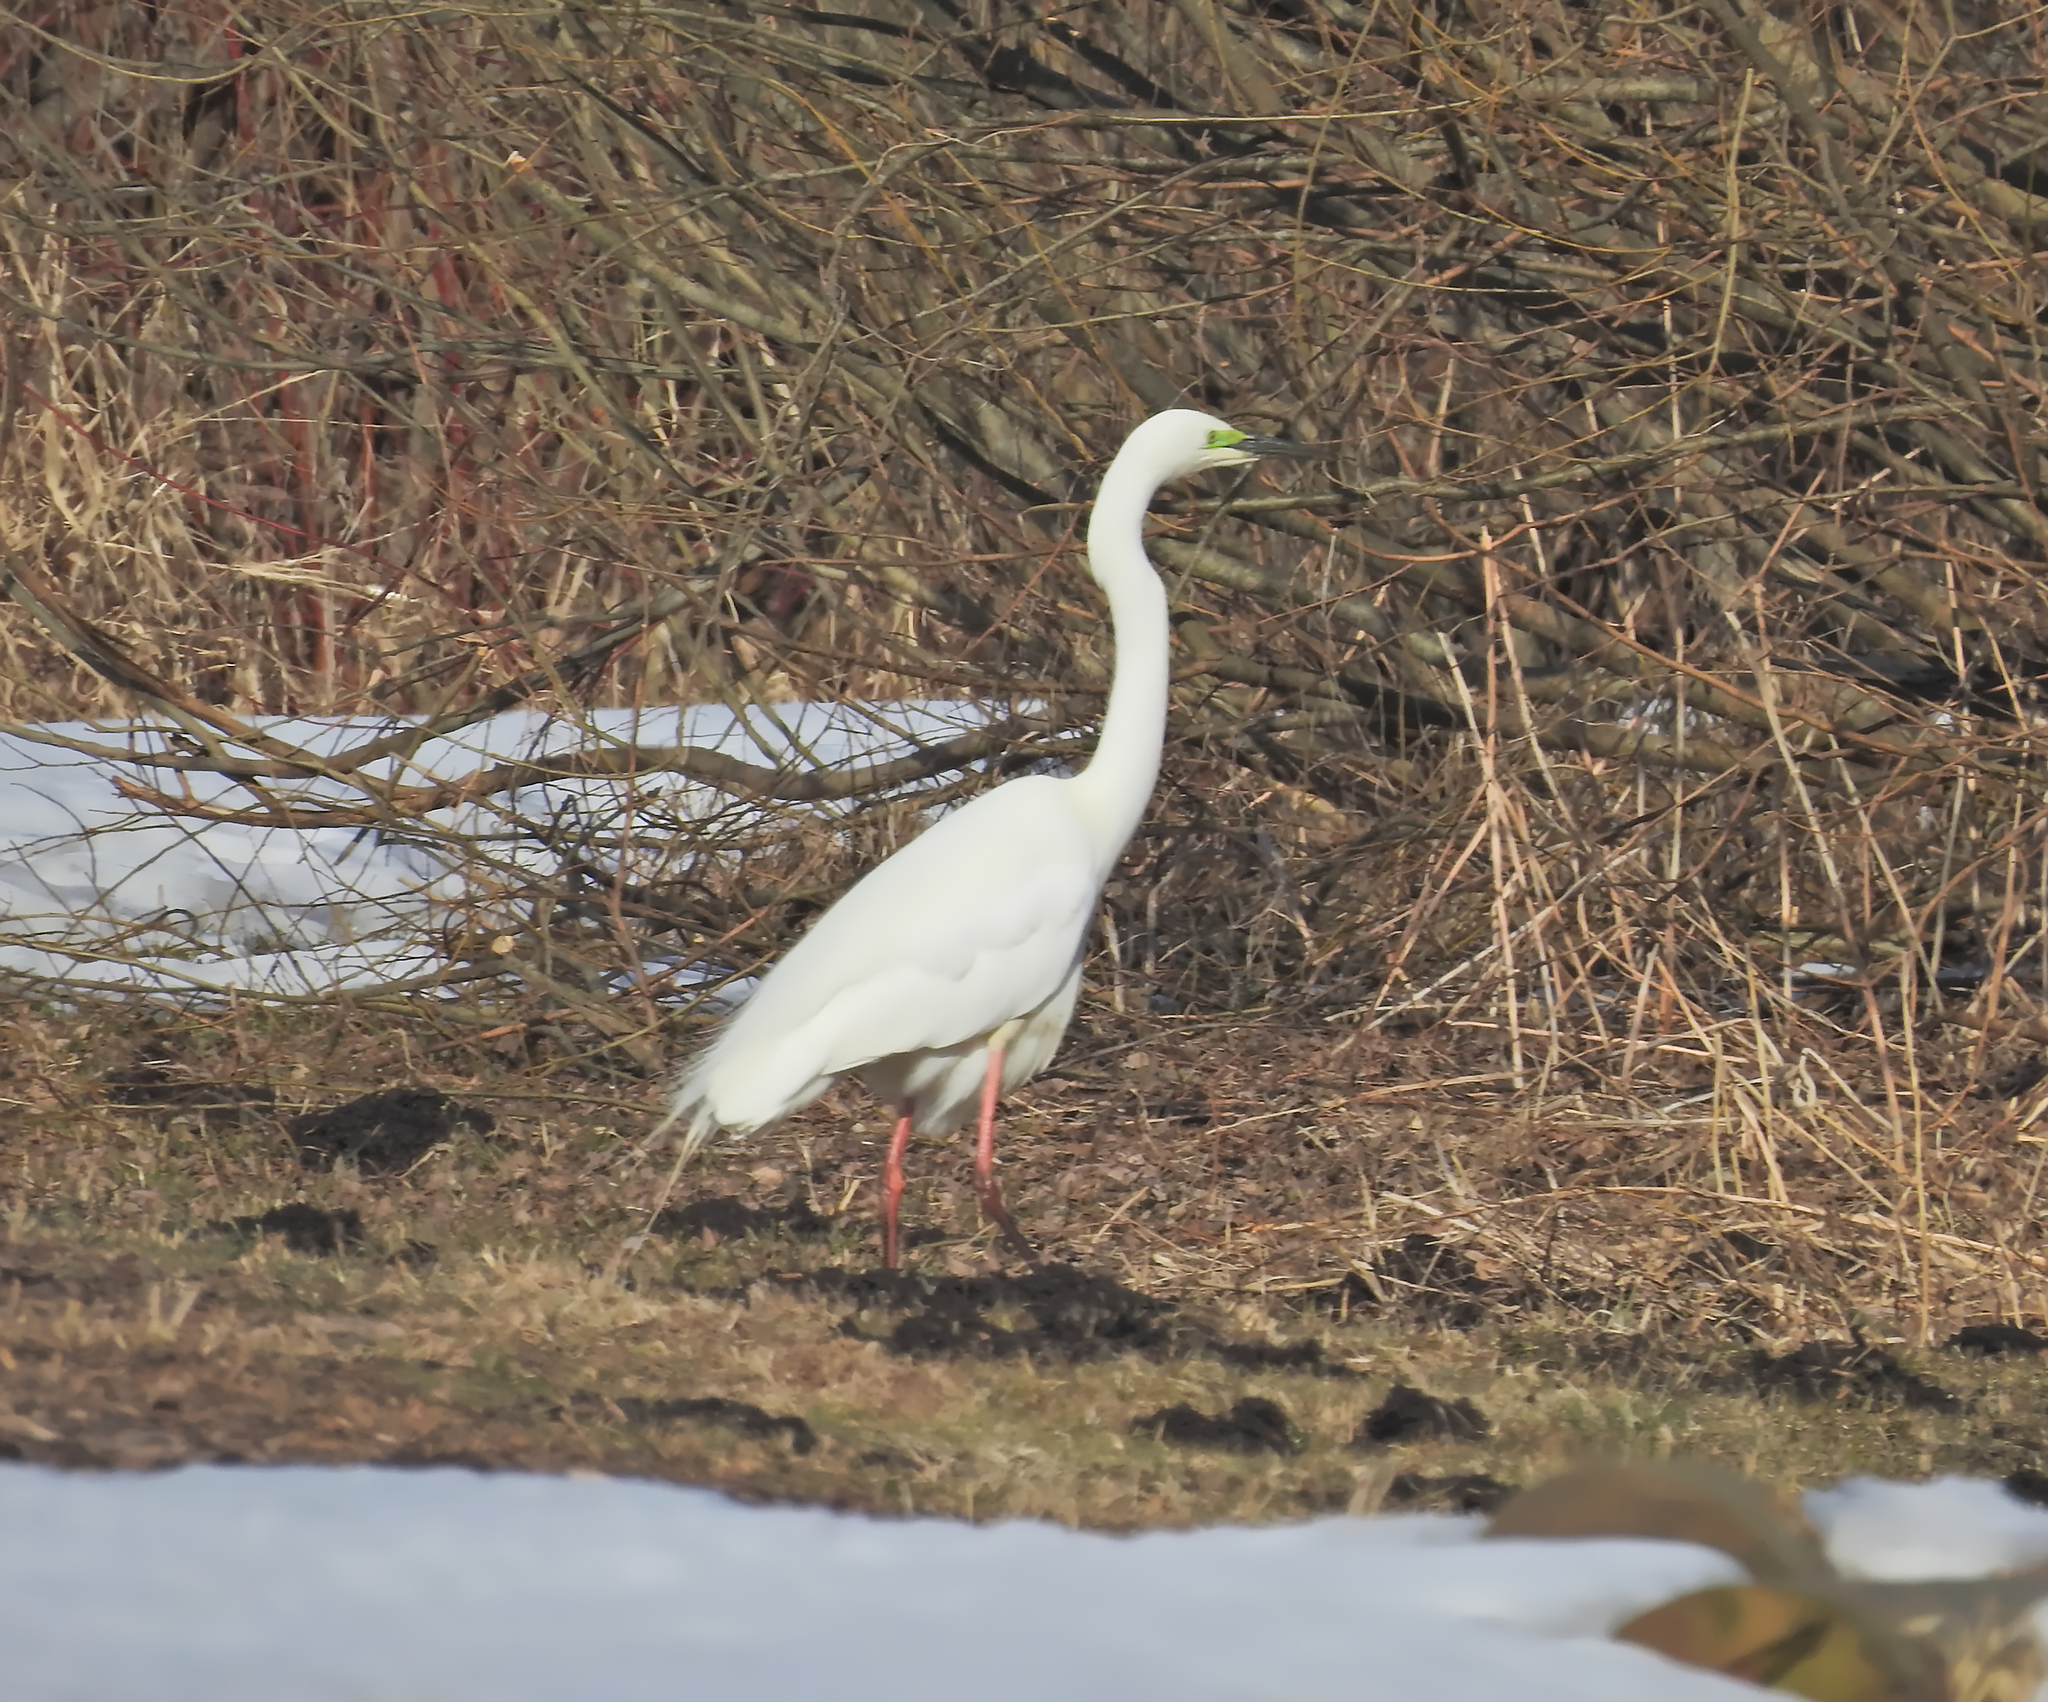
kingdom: Animalia
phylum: Chordata
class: Aves
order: Pelecaniformes
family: Ardeidae
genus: Ardea
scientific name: Ardea alba
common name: Great egret
